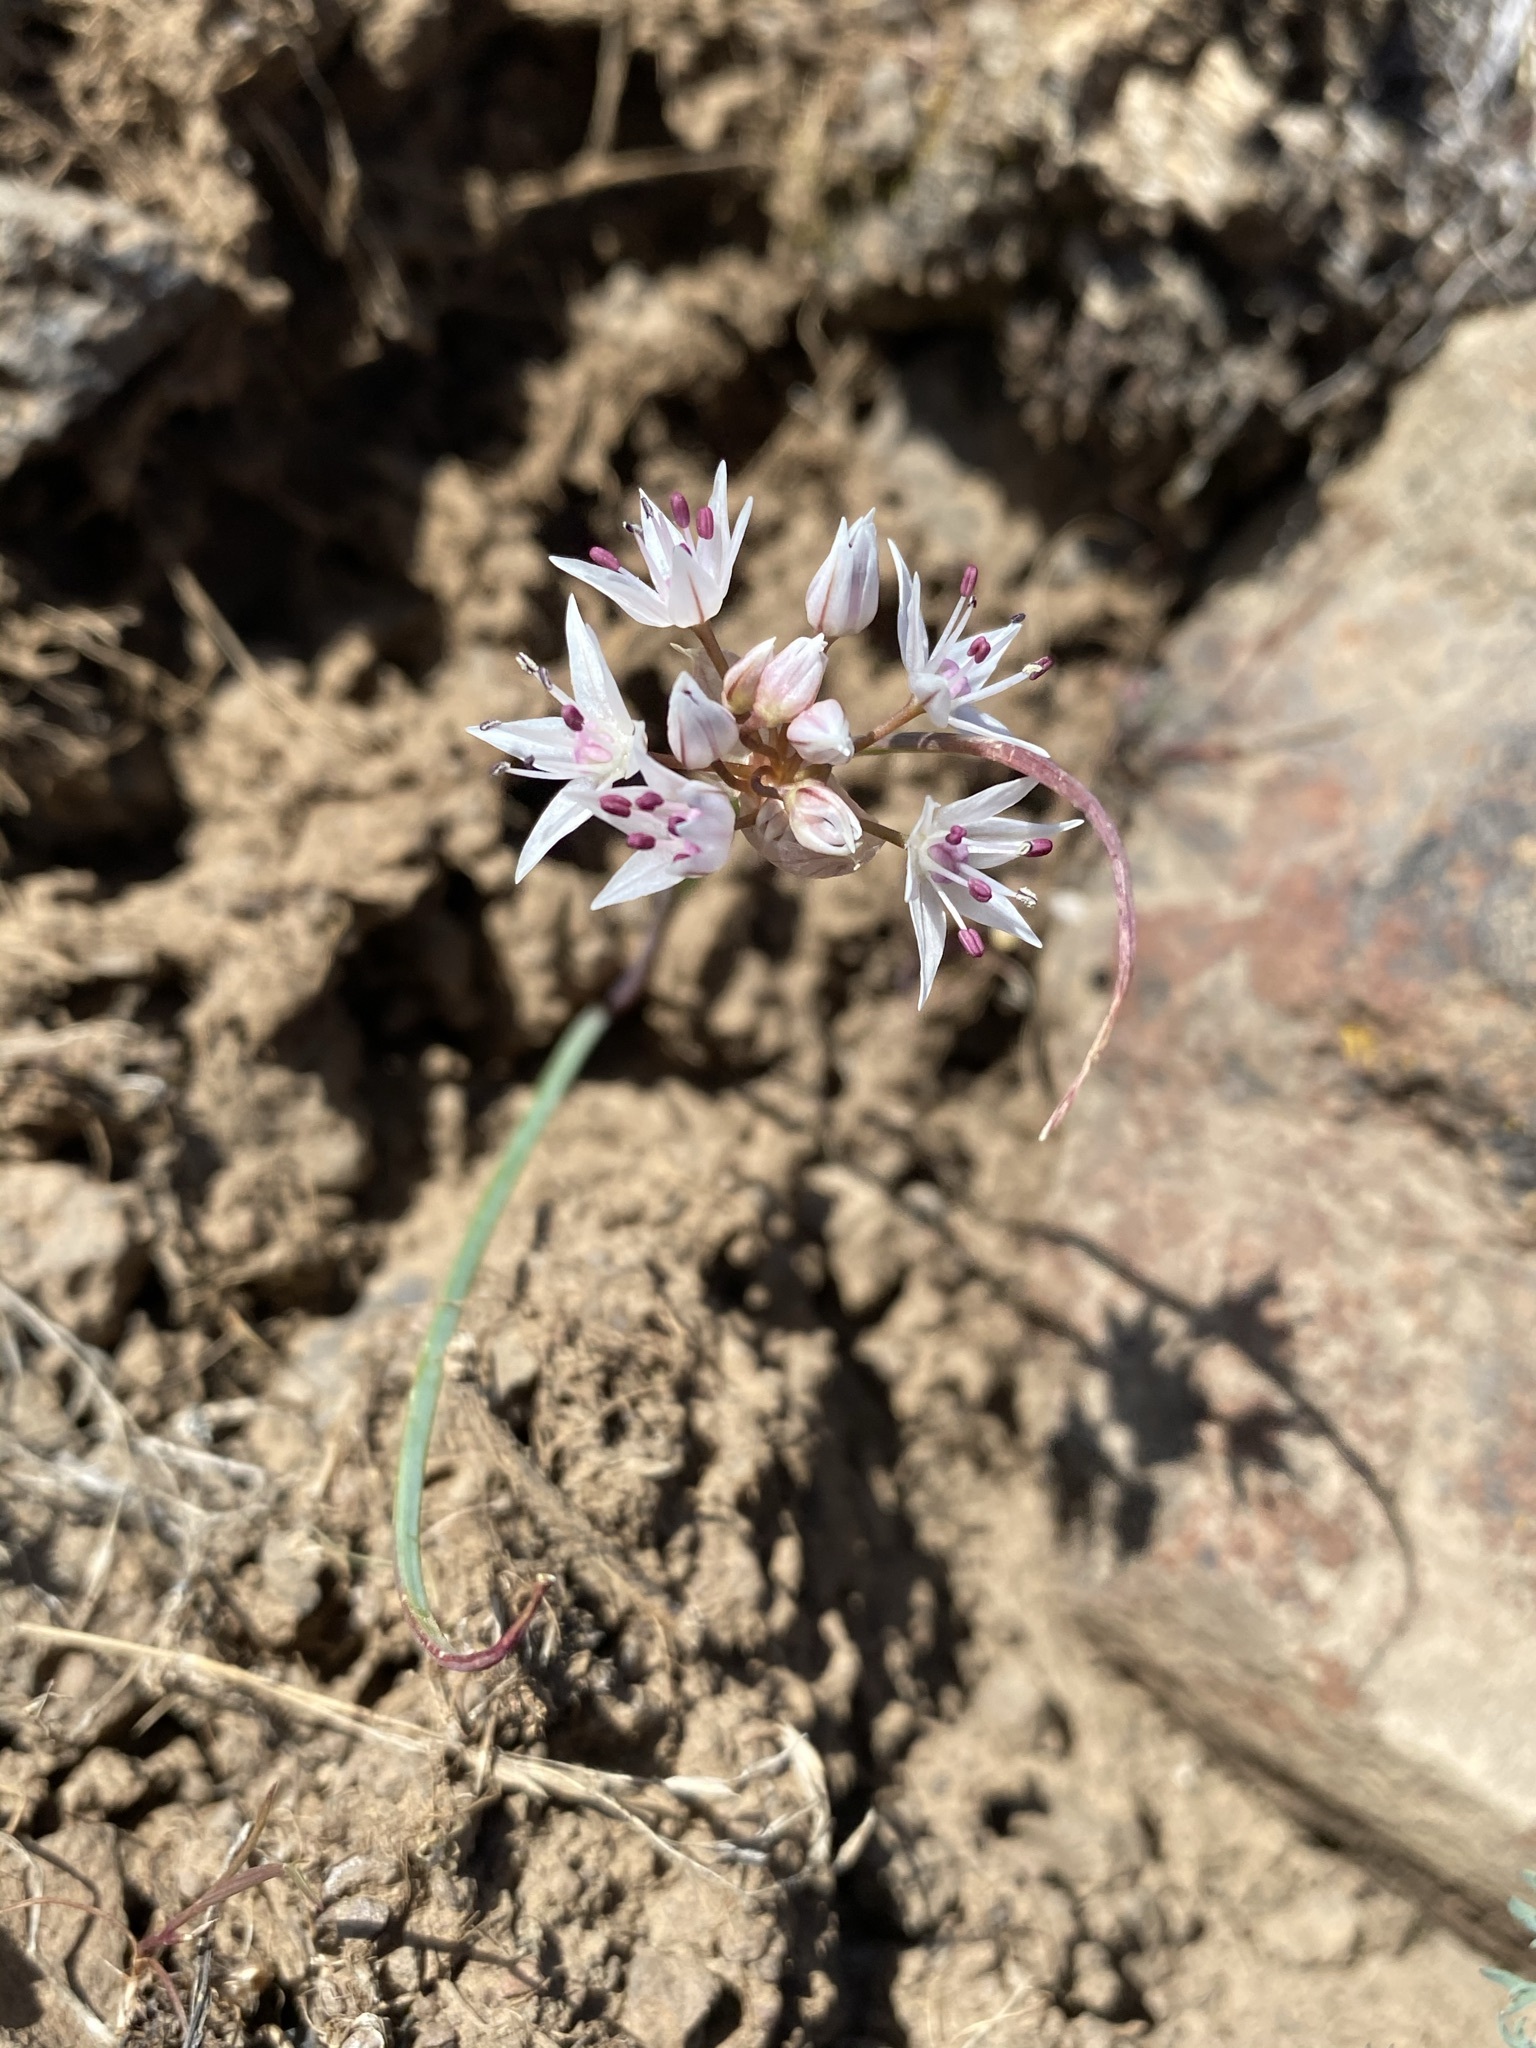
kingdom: Plantae
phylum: Tracheophyta
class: Liliopsida
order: Asparagales
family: Amaryllidaceae
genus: Allium
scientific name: Allium macrum
